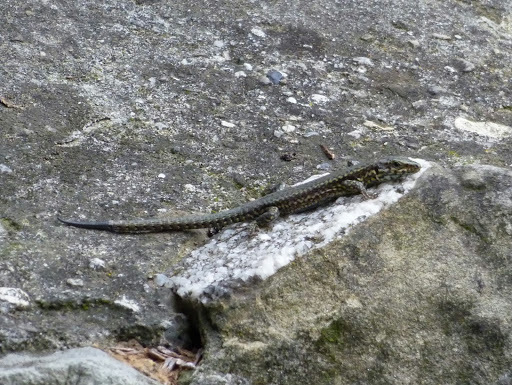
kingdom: Animalia
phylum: Chordata
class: Squamata
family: Lacertidae
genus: Podarcis
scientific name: Podarcis muralis
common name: Common wall lizard
